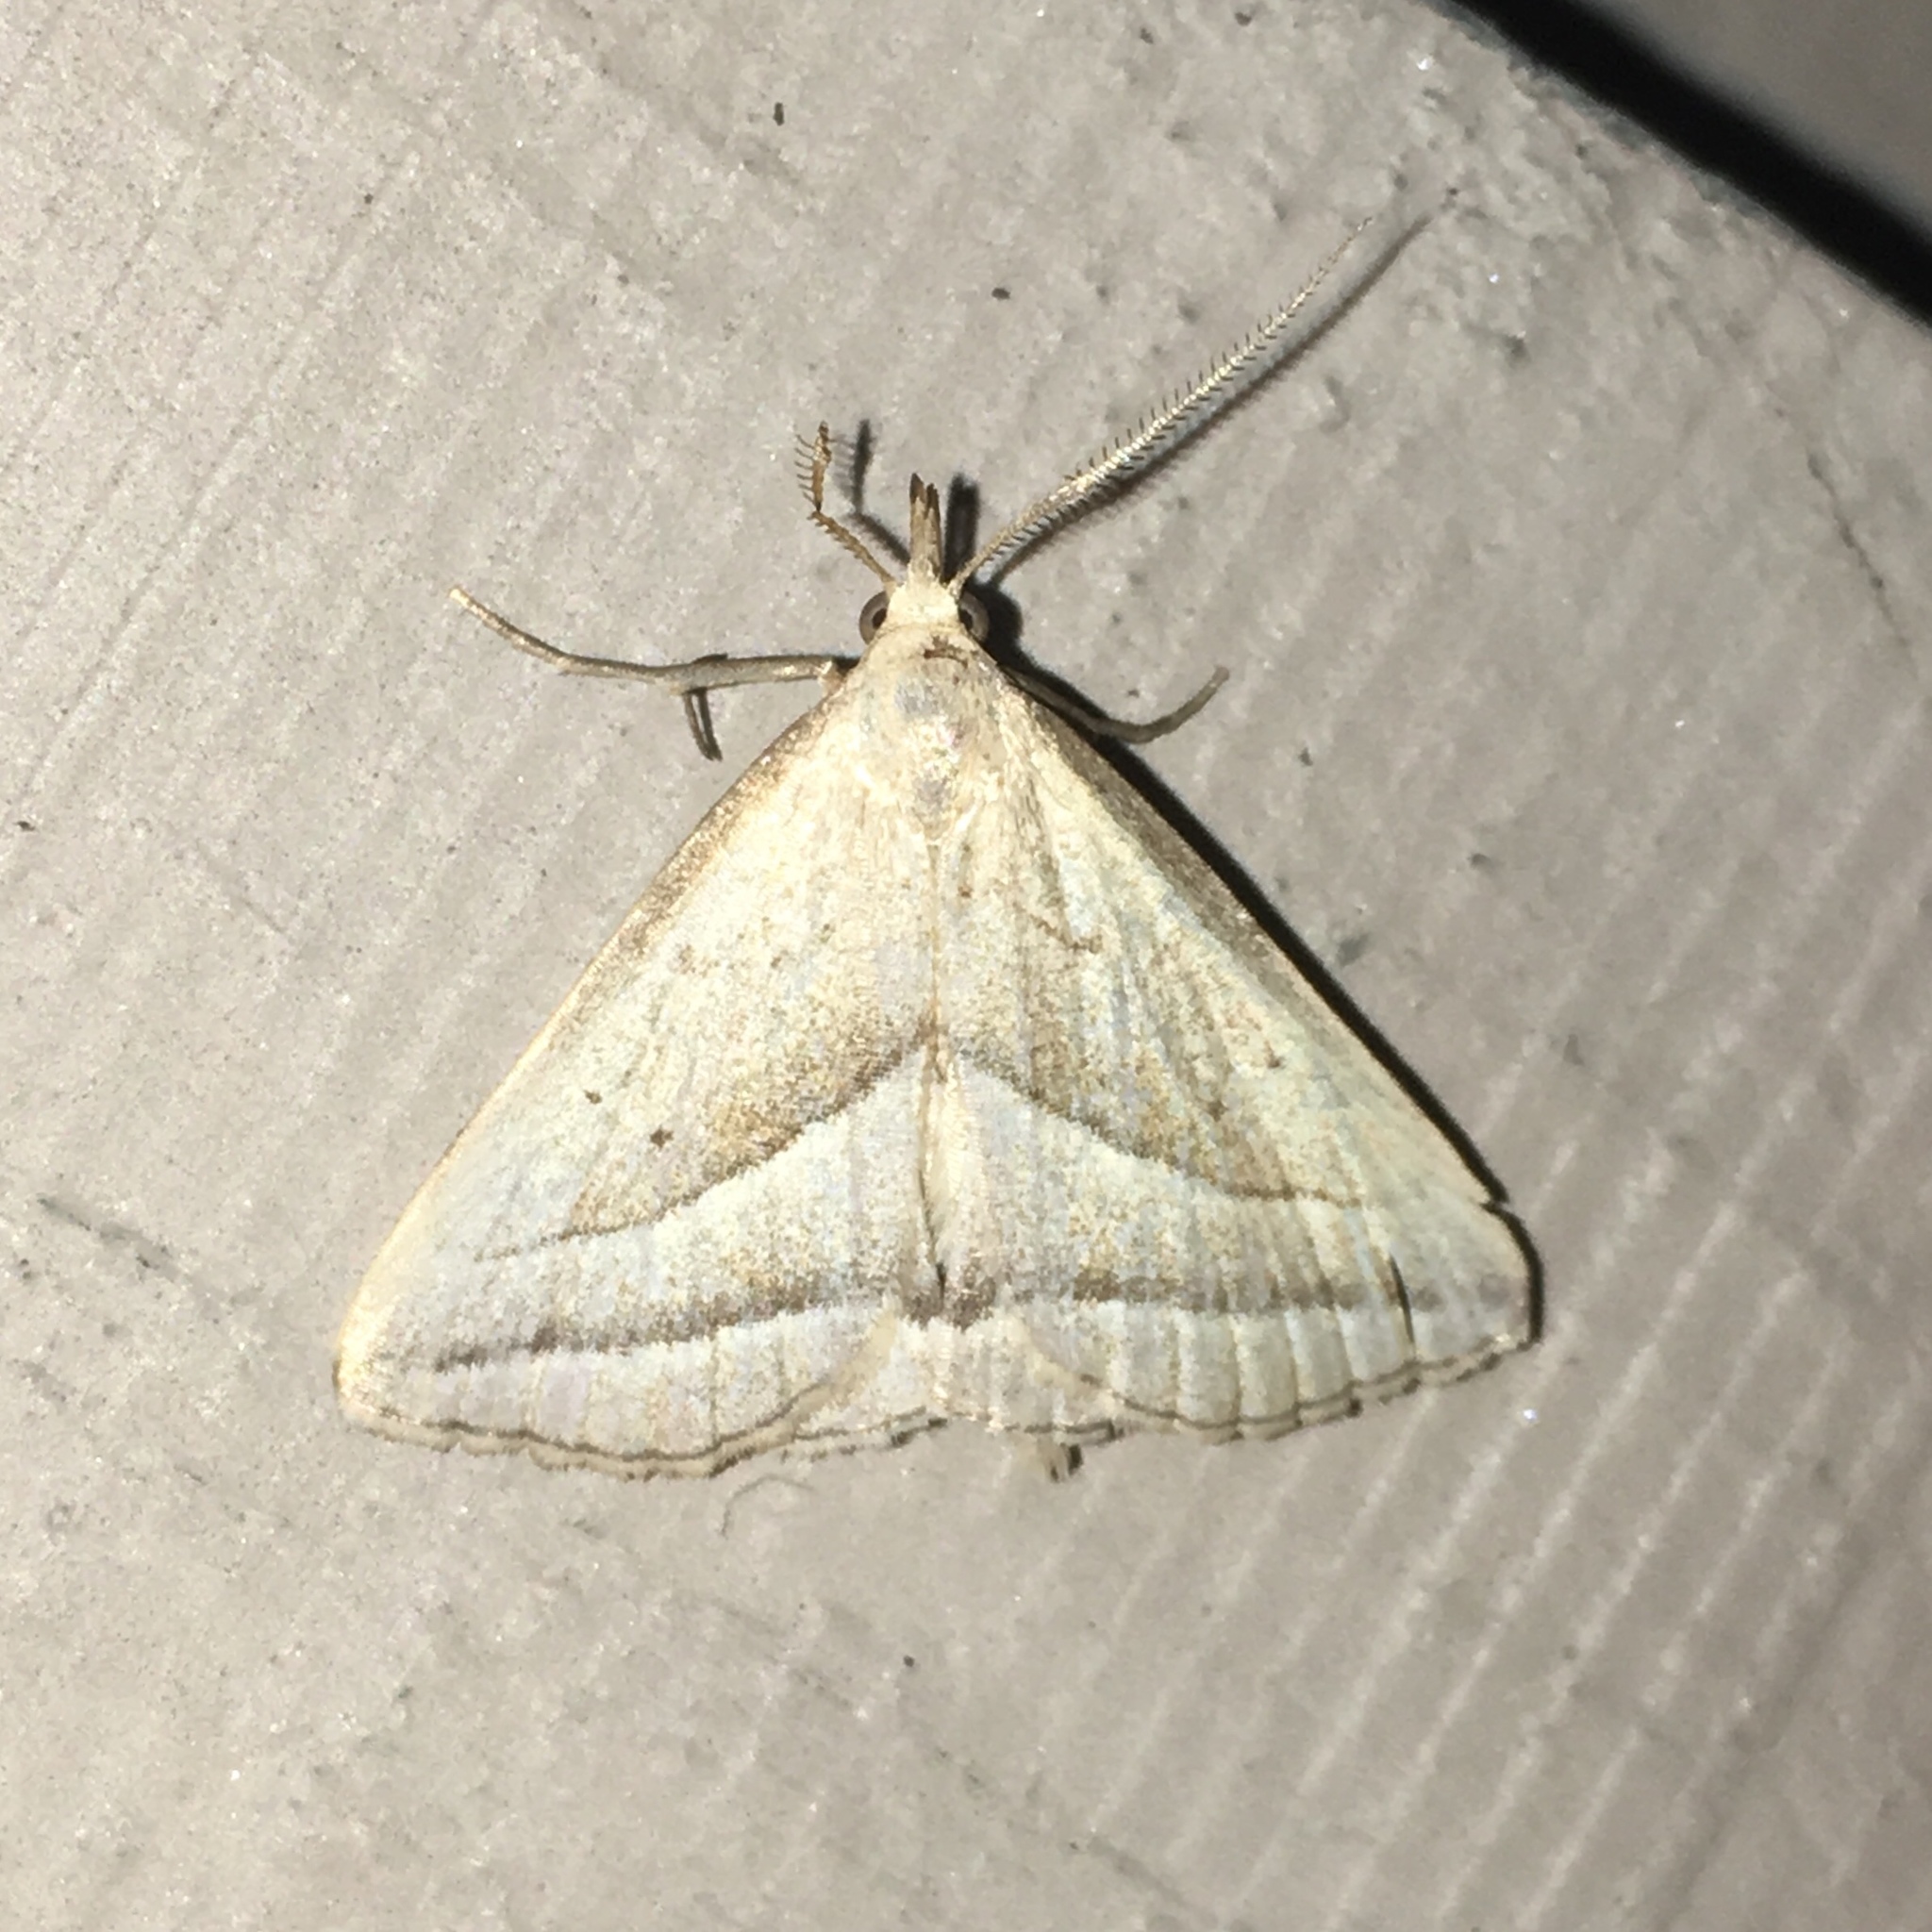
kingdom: Animalia
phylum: Arthropoda
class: Insecta
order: Lepidoptera
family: Erebidae
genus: Macrochilo
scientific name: Macrochilo absorptalis
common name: Slant-lined owlet
